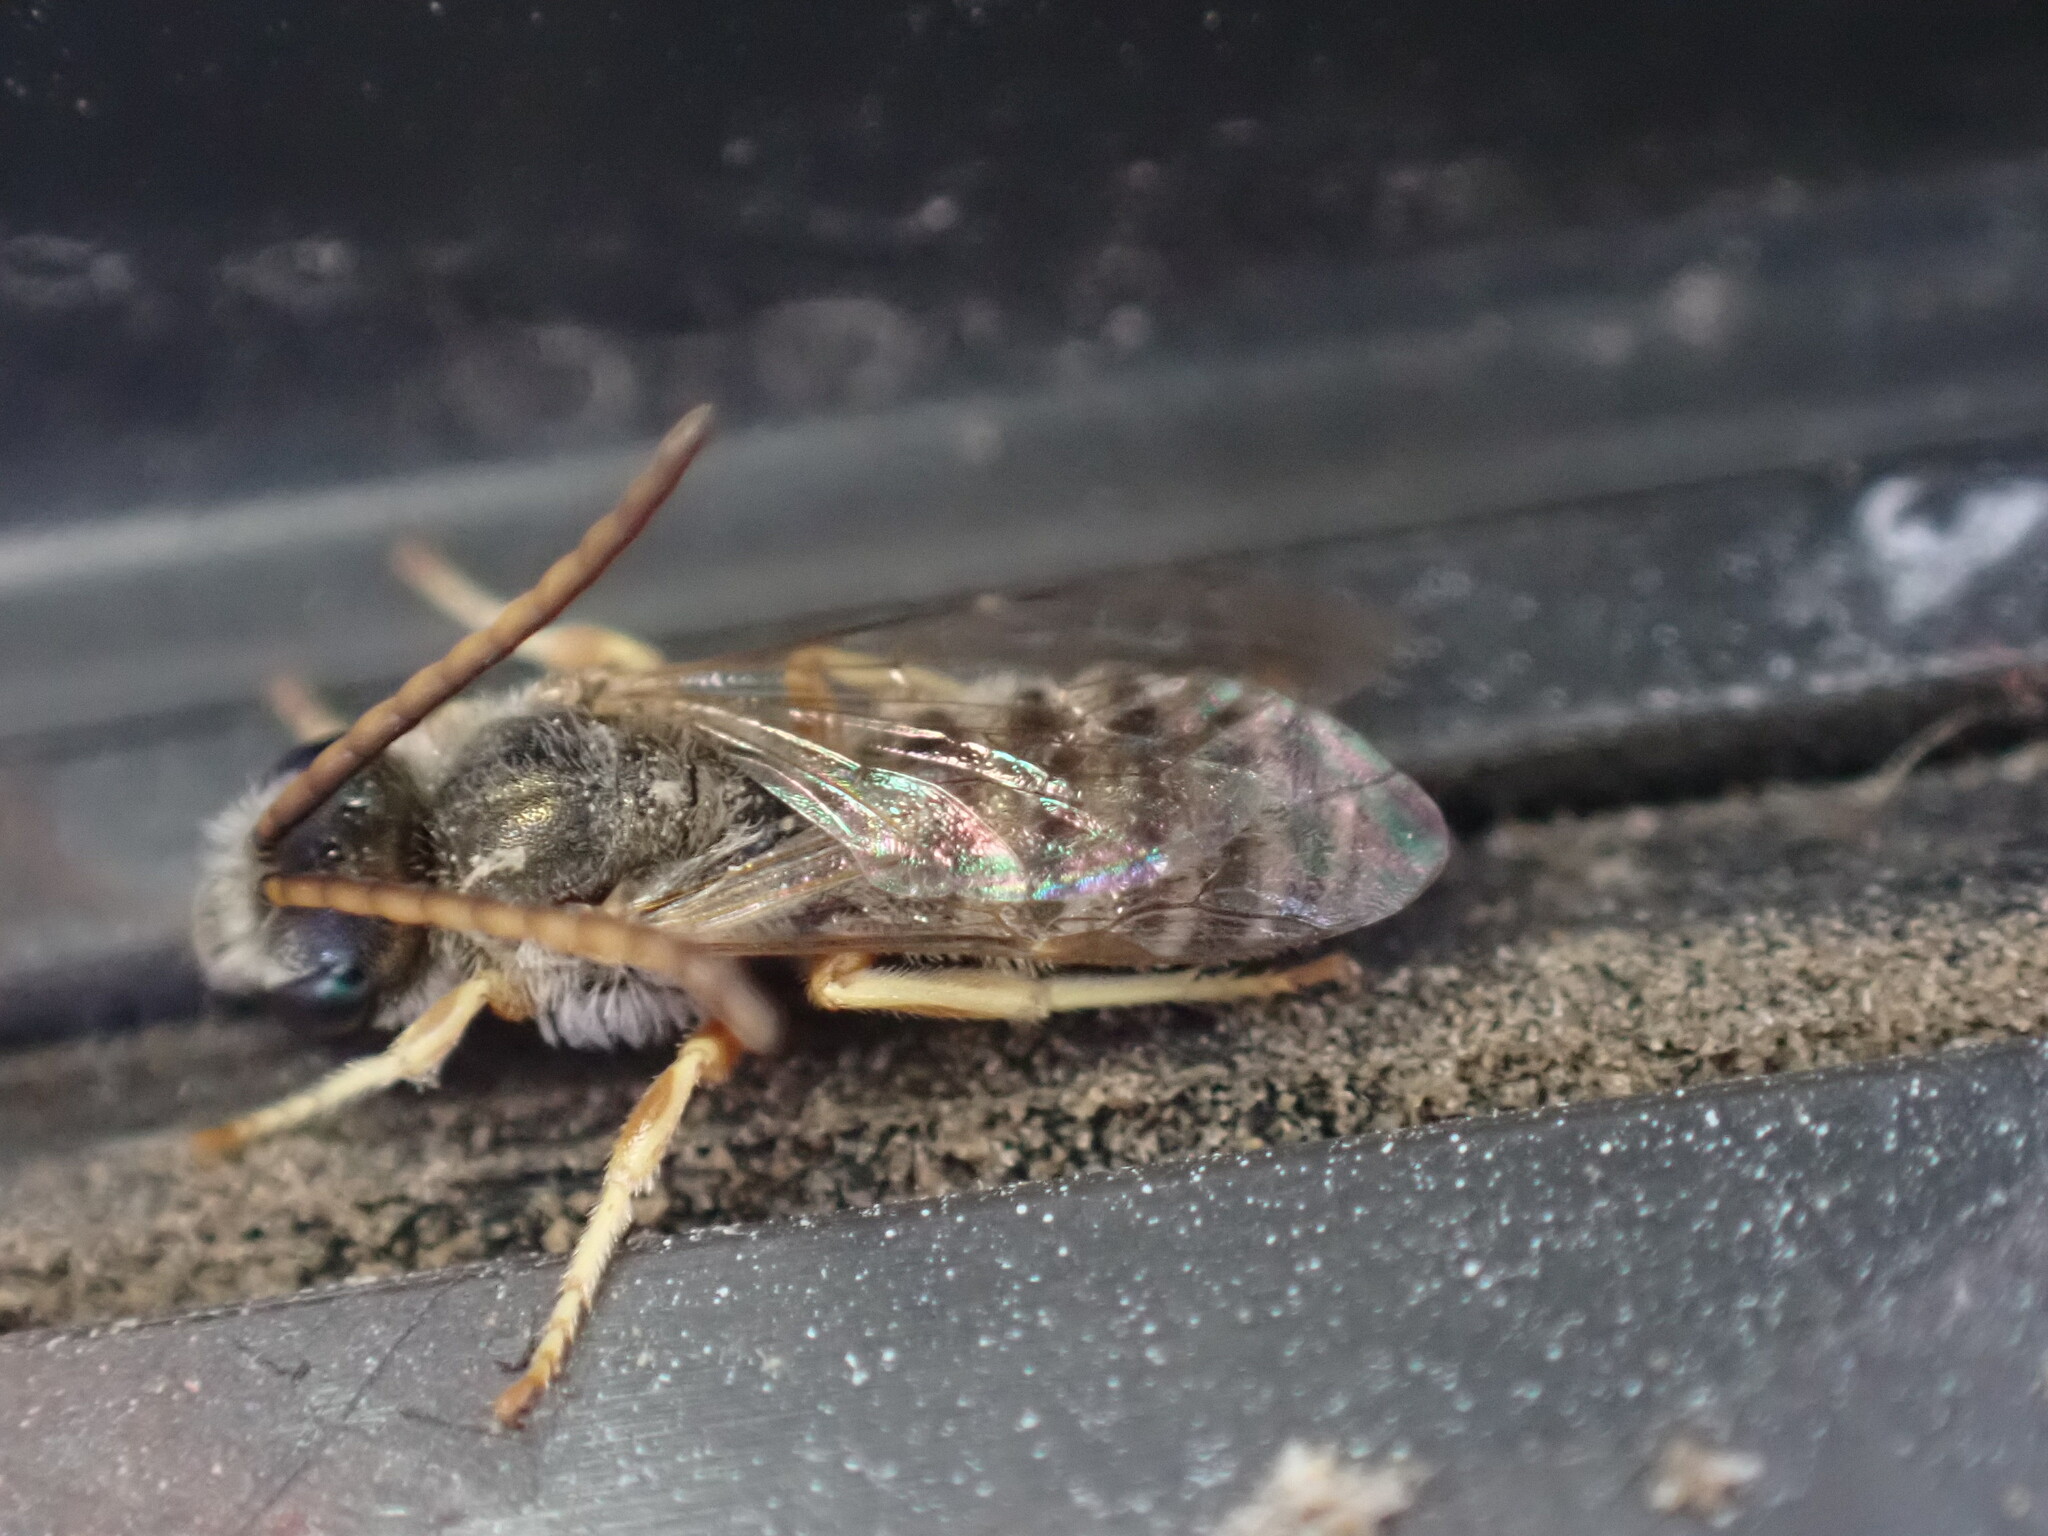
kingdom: Animalia
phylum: Arthropoda
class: Insecta
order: Hymenoptera
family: Halictidae
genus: Halictus
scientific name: Halictus confusus
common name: Southern bronze furrow bee
